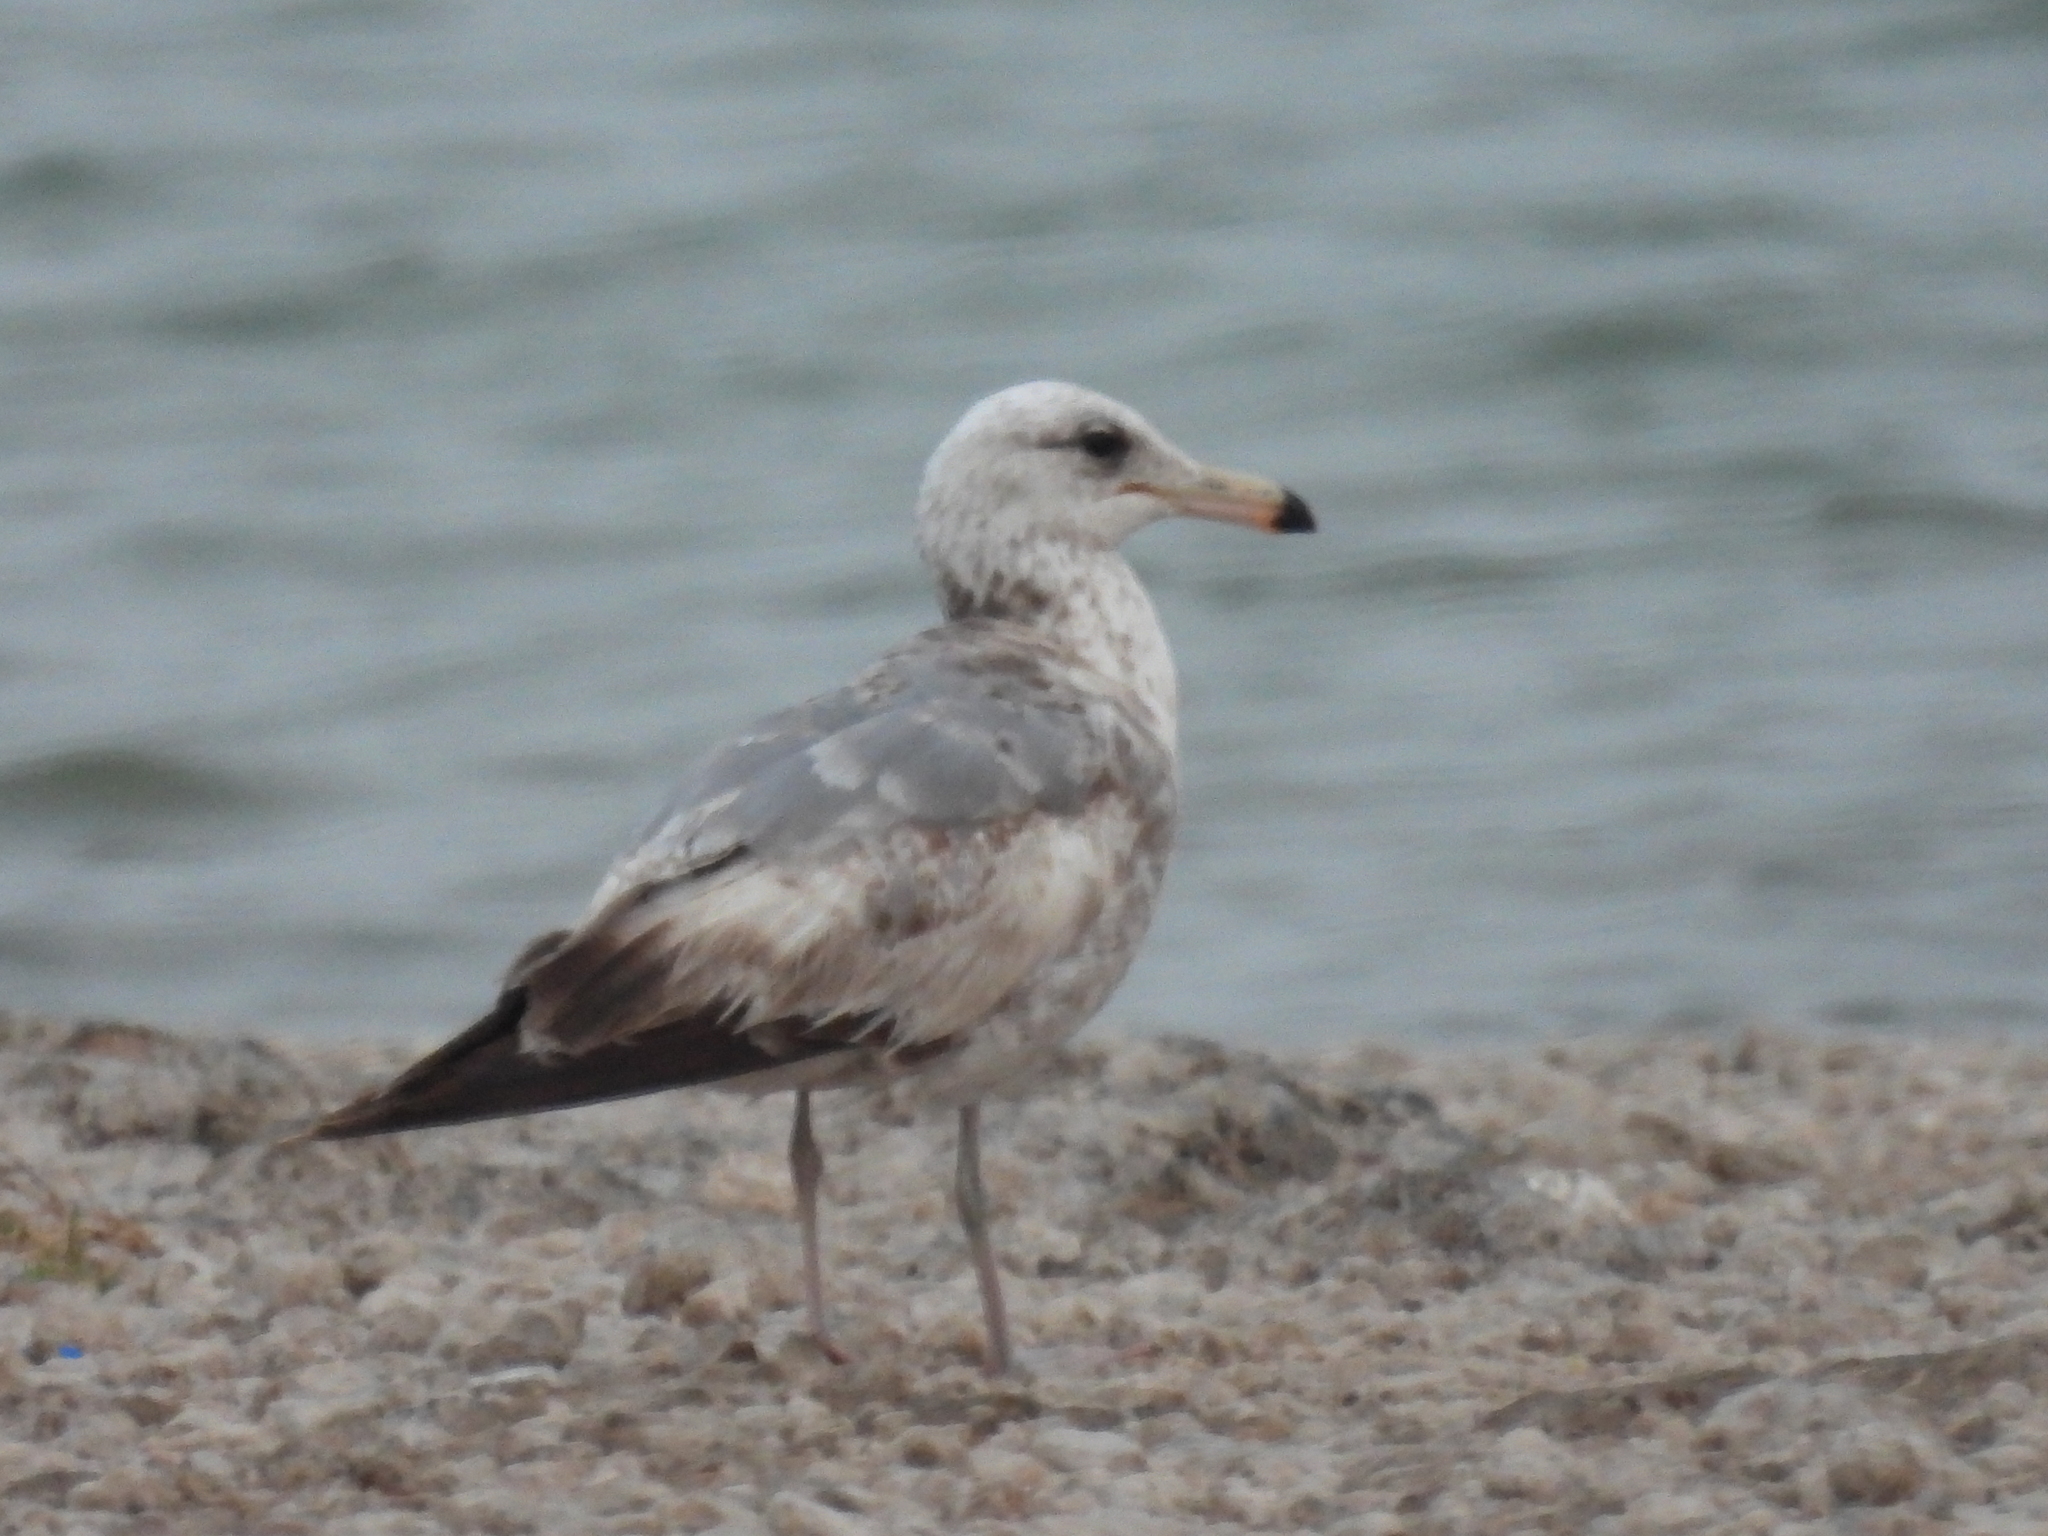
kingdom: Animalia
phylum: Chordata
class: Aves
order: Charadriiformes
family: Laridae
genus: Larus
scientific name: Larus californicus
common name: California gull
